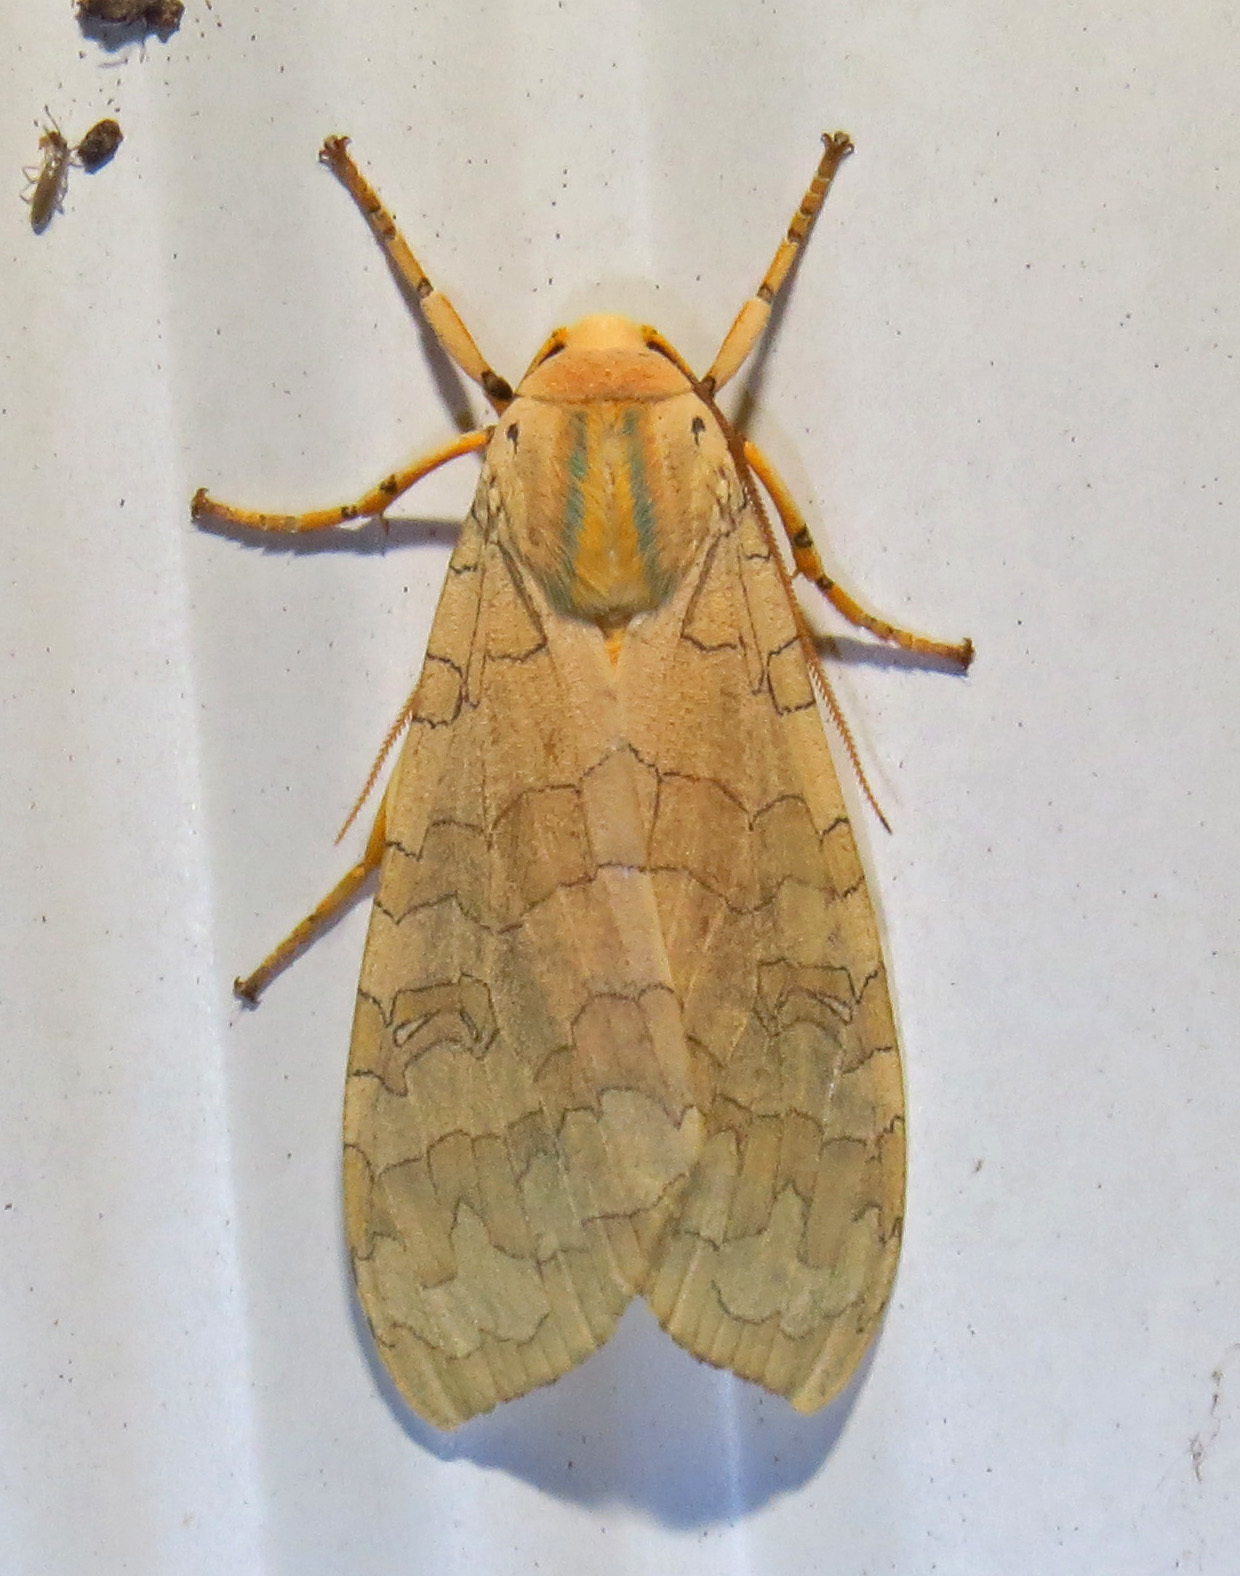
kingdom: Animalia
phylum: Arthropoda
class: Insecta
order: Lepidoptera
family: Erebidae
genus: Halysidota
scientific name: Halysidota
